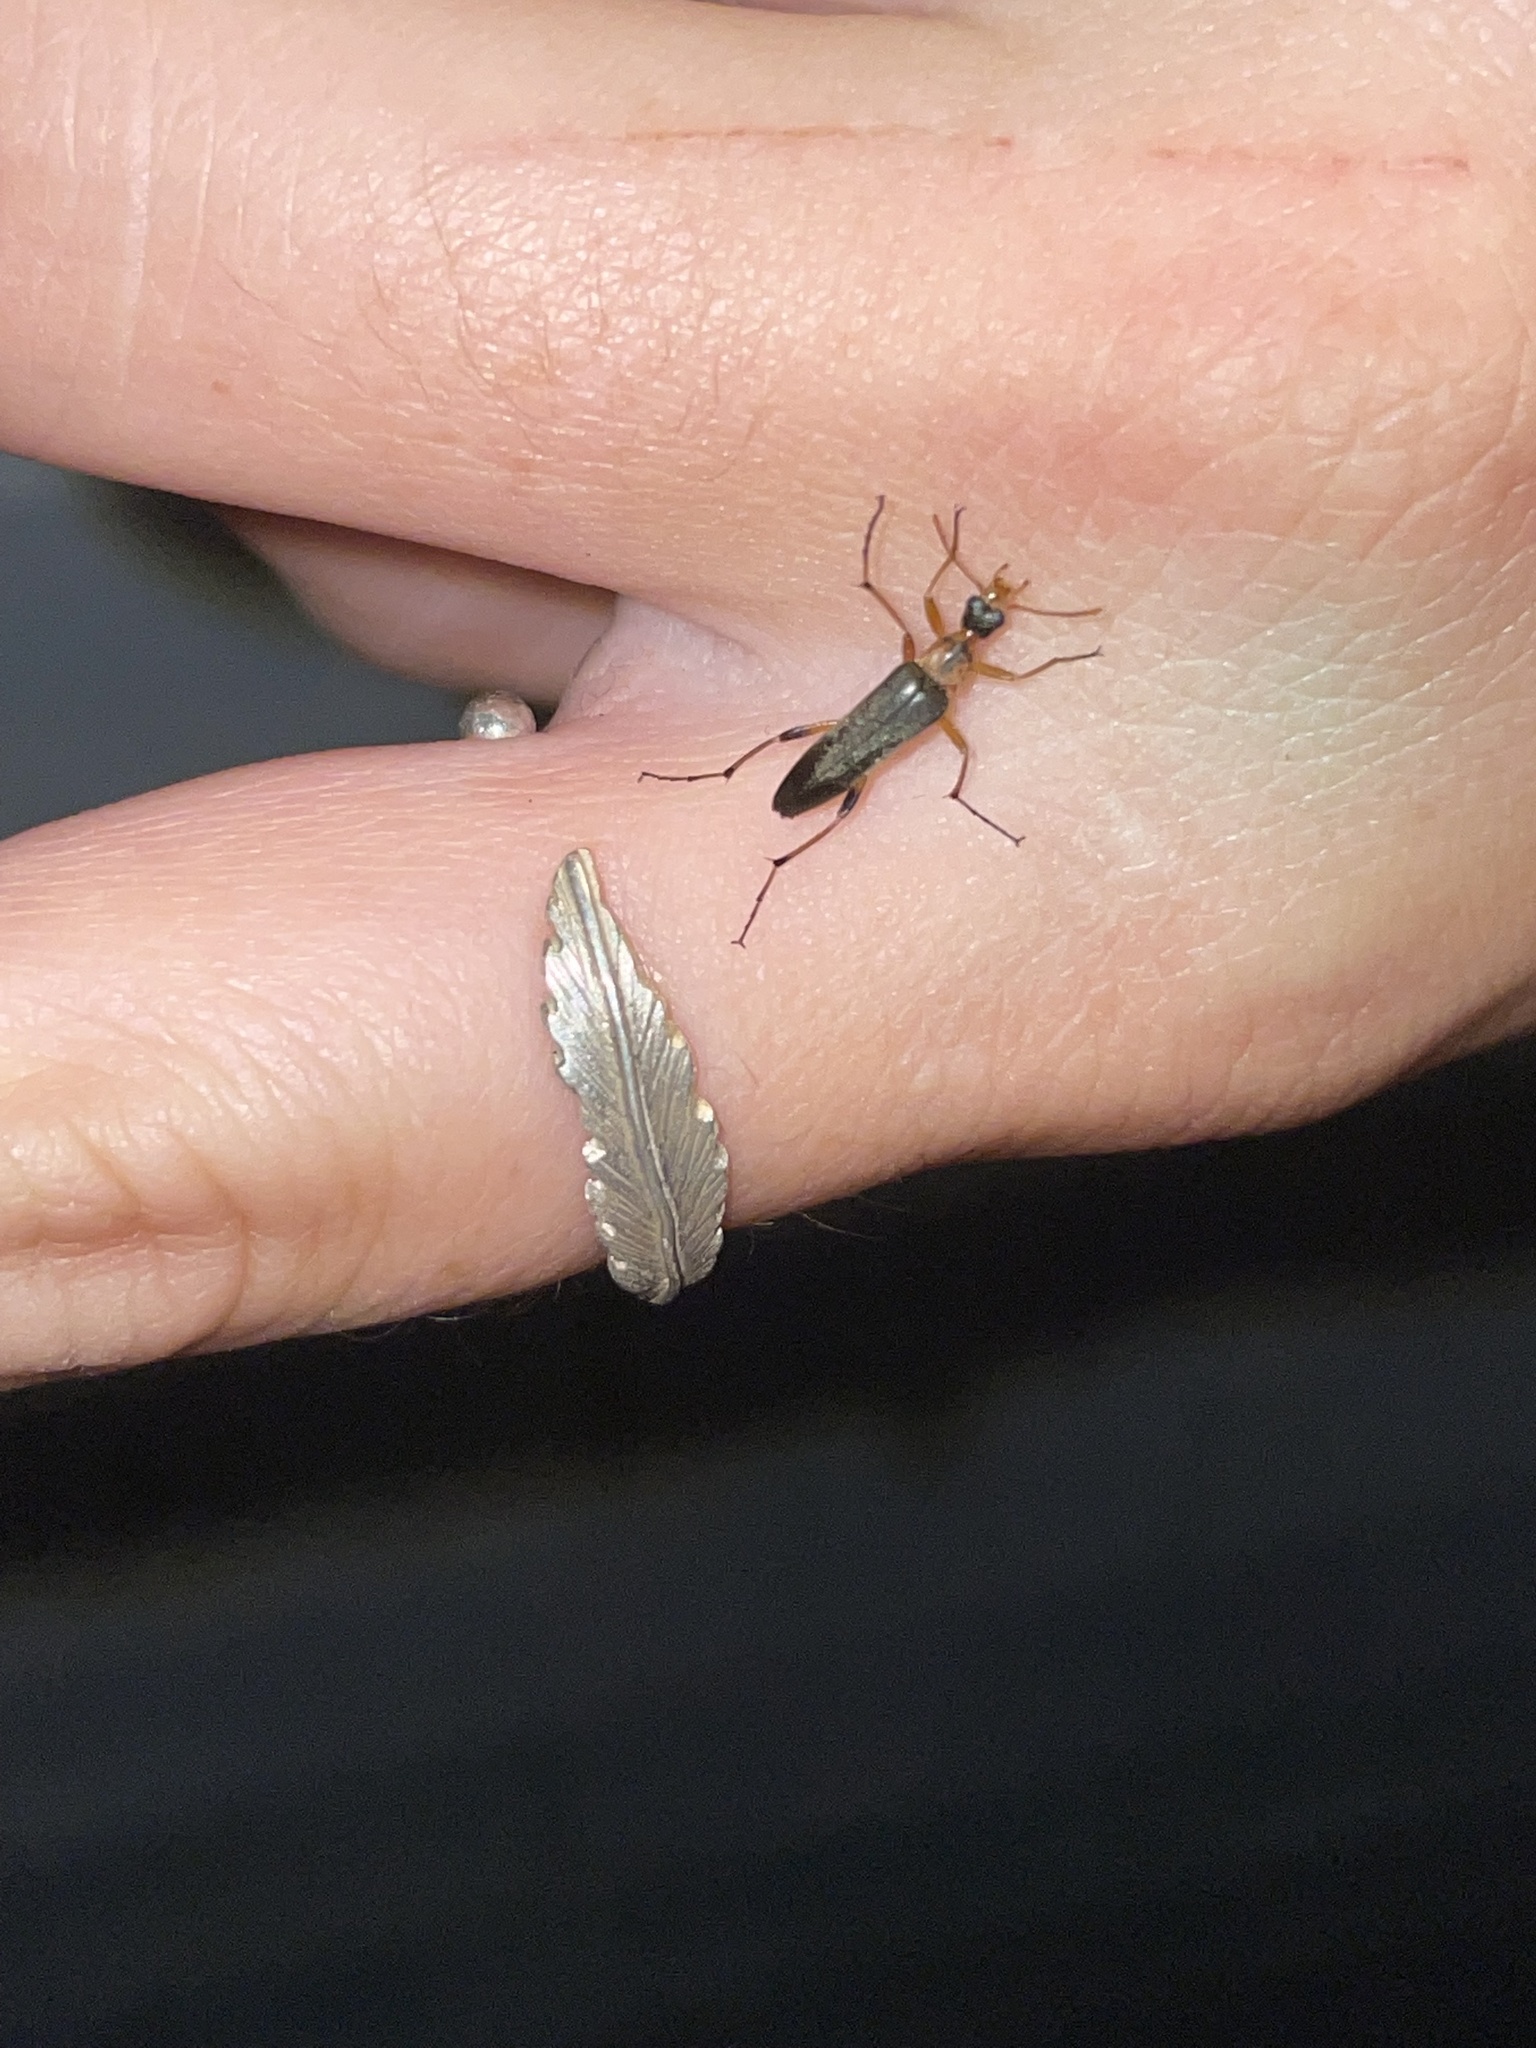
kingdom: Animalia
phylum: Arthropoda
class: Insecta
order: Coleoptera
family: Stenotrachelidae
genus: Cephaloon
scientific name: Cephaloon lepturides
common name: False leptura beetle
